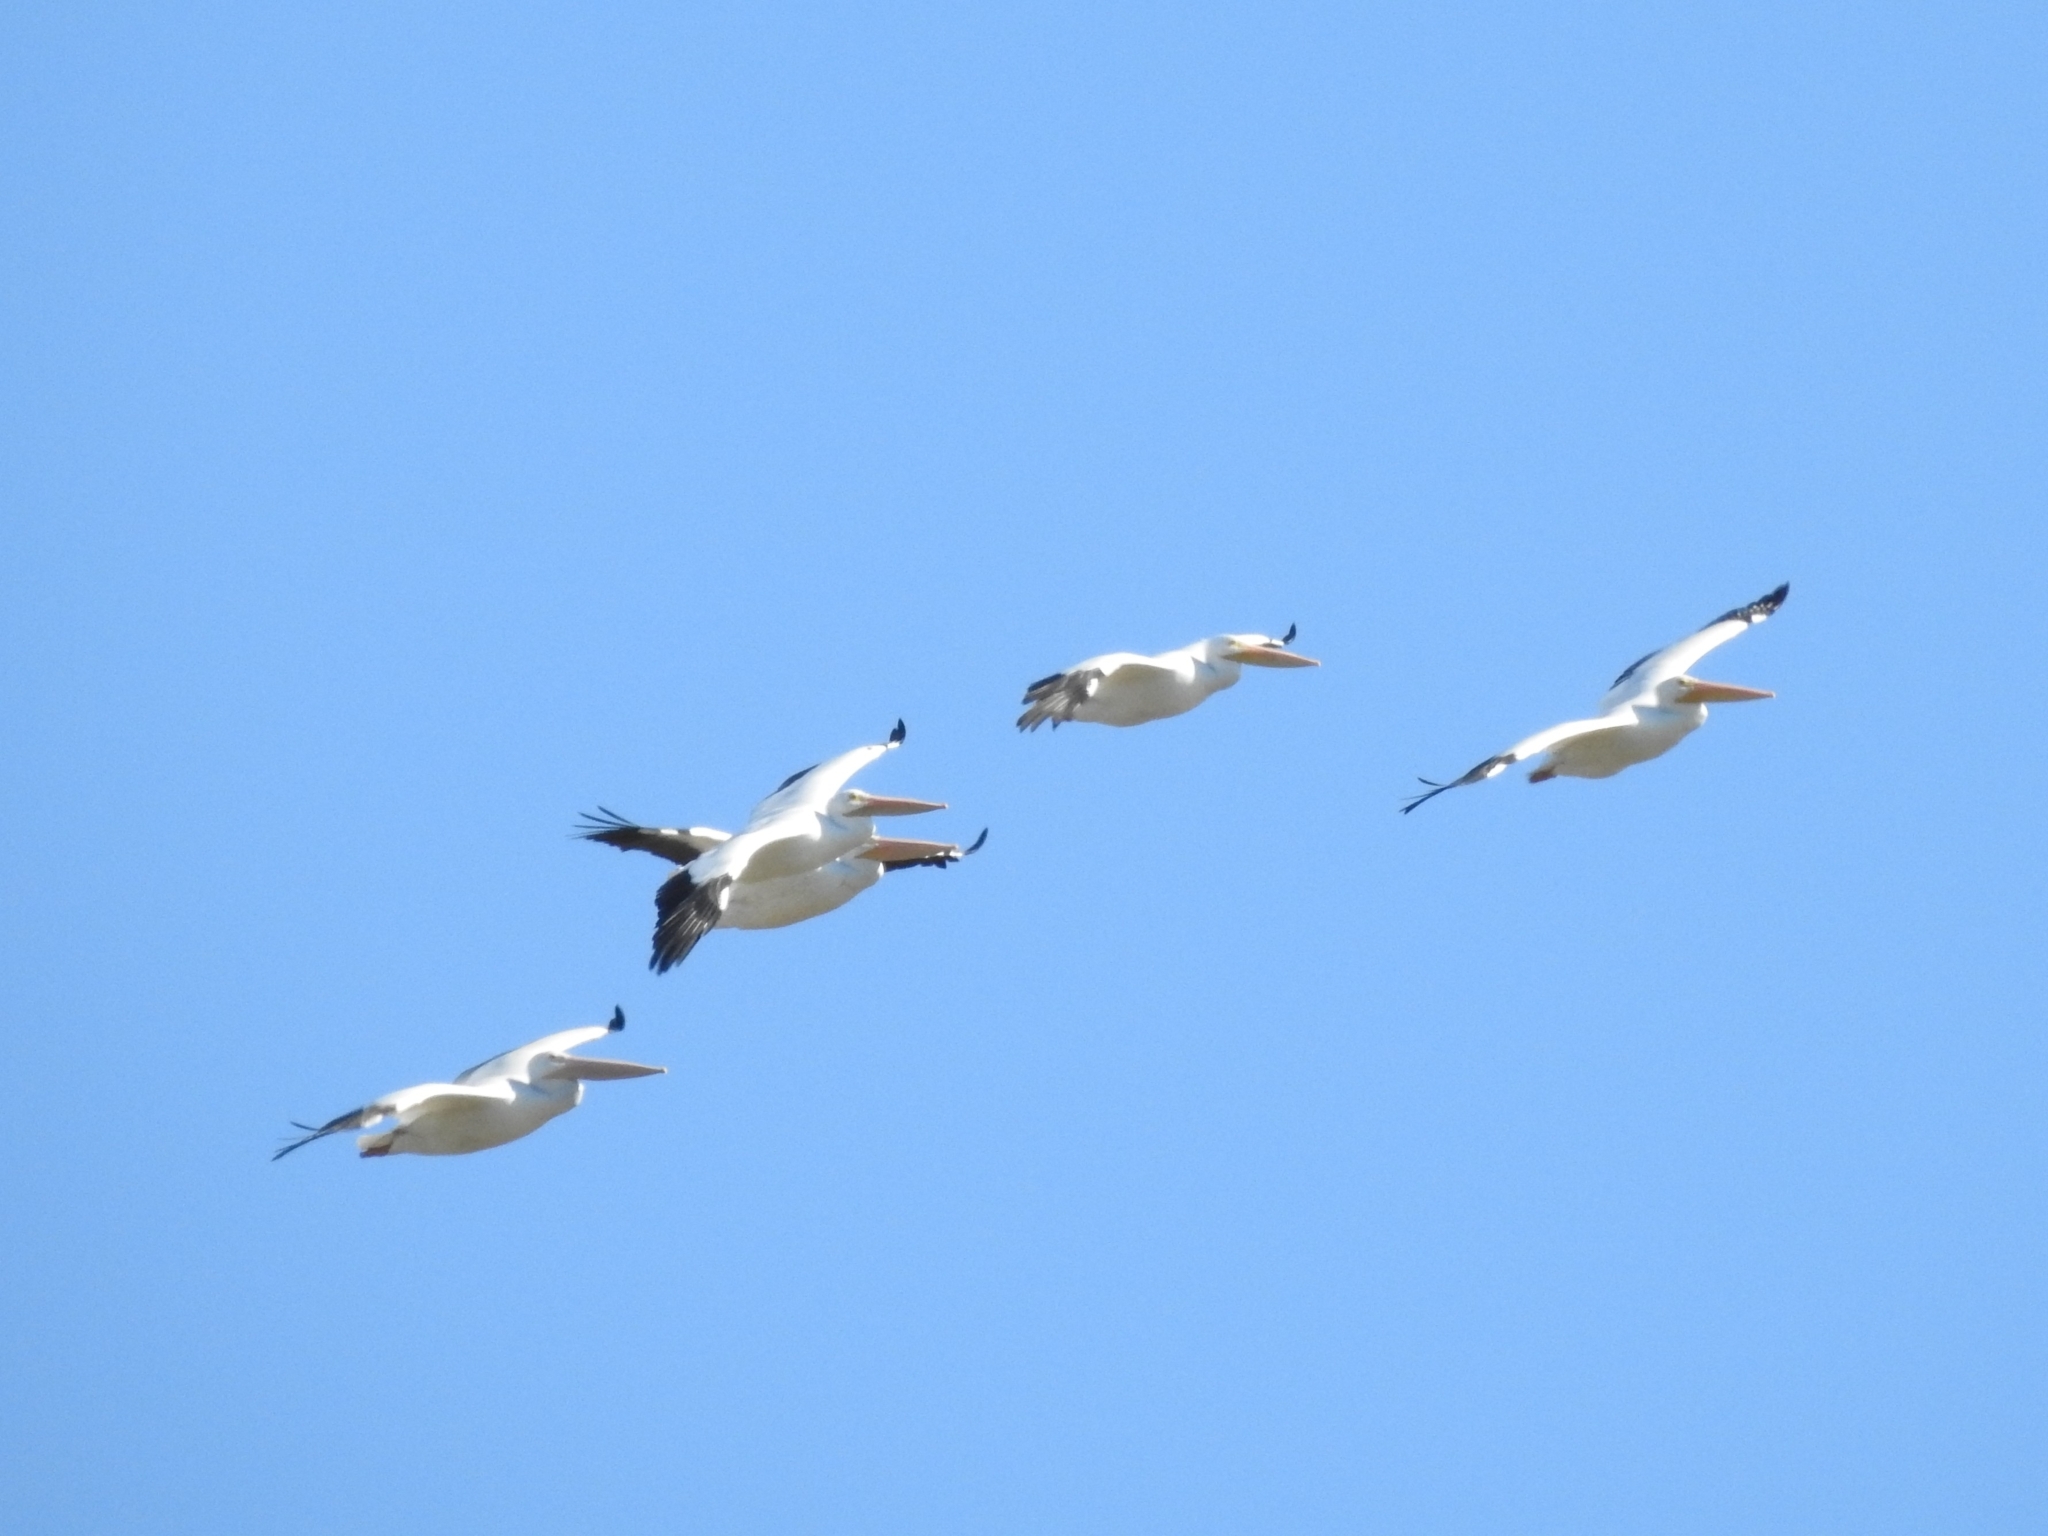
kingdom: Animalia
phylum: Chordata
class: Aves
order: Pelecaniformes
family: Pelecanidae
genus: Pelecanus
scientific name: Pelecanus erythrorhynchos
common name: American white pelican
